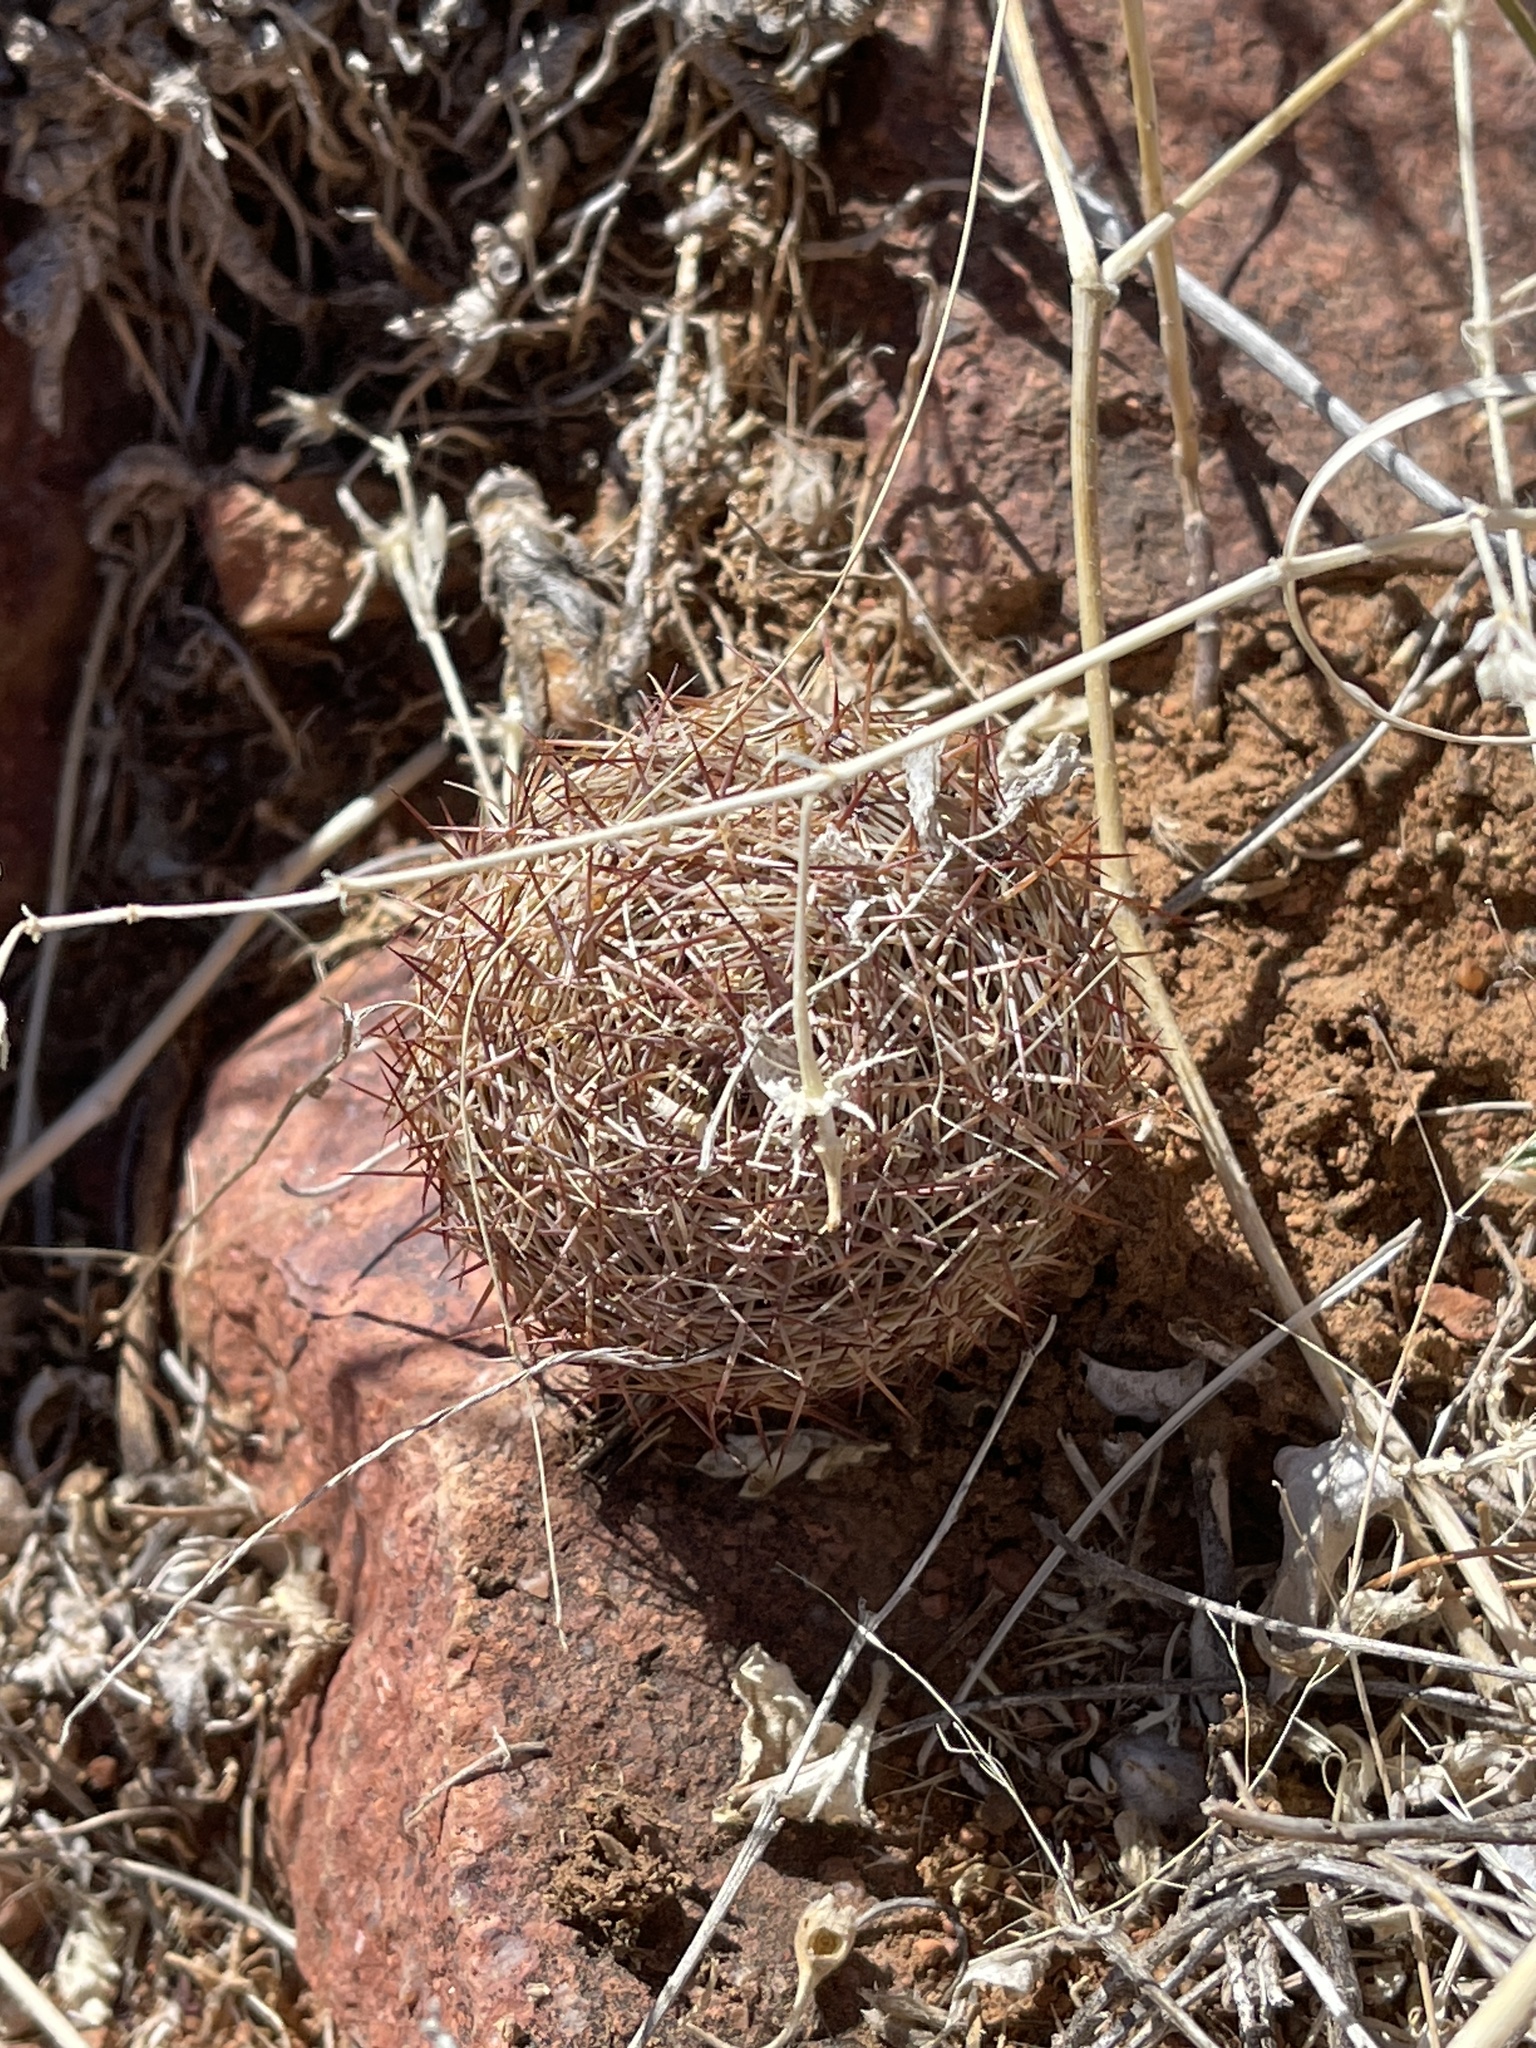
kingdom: Plantae
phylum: Tracheophyta
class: Magnoliopsida
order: Caryophyllales
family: Cactaceae
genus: Sclerocactus
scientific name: Sclerocactus intertextus
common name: White fish-hook cactus
